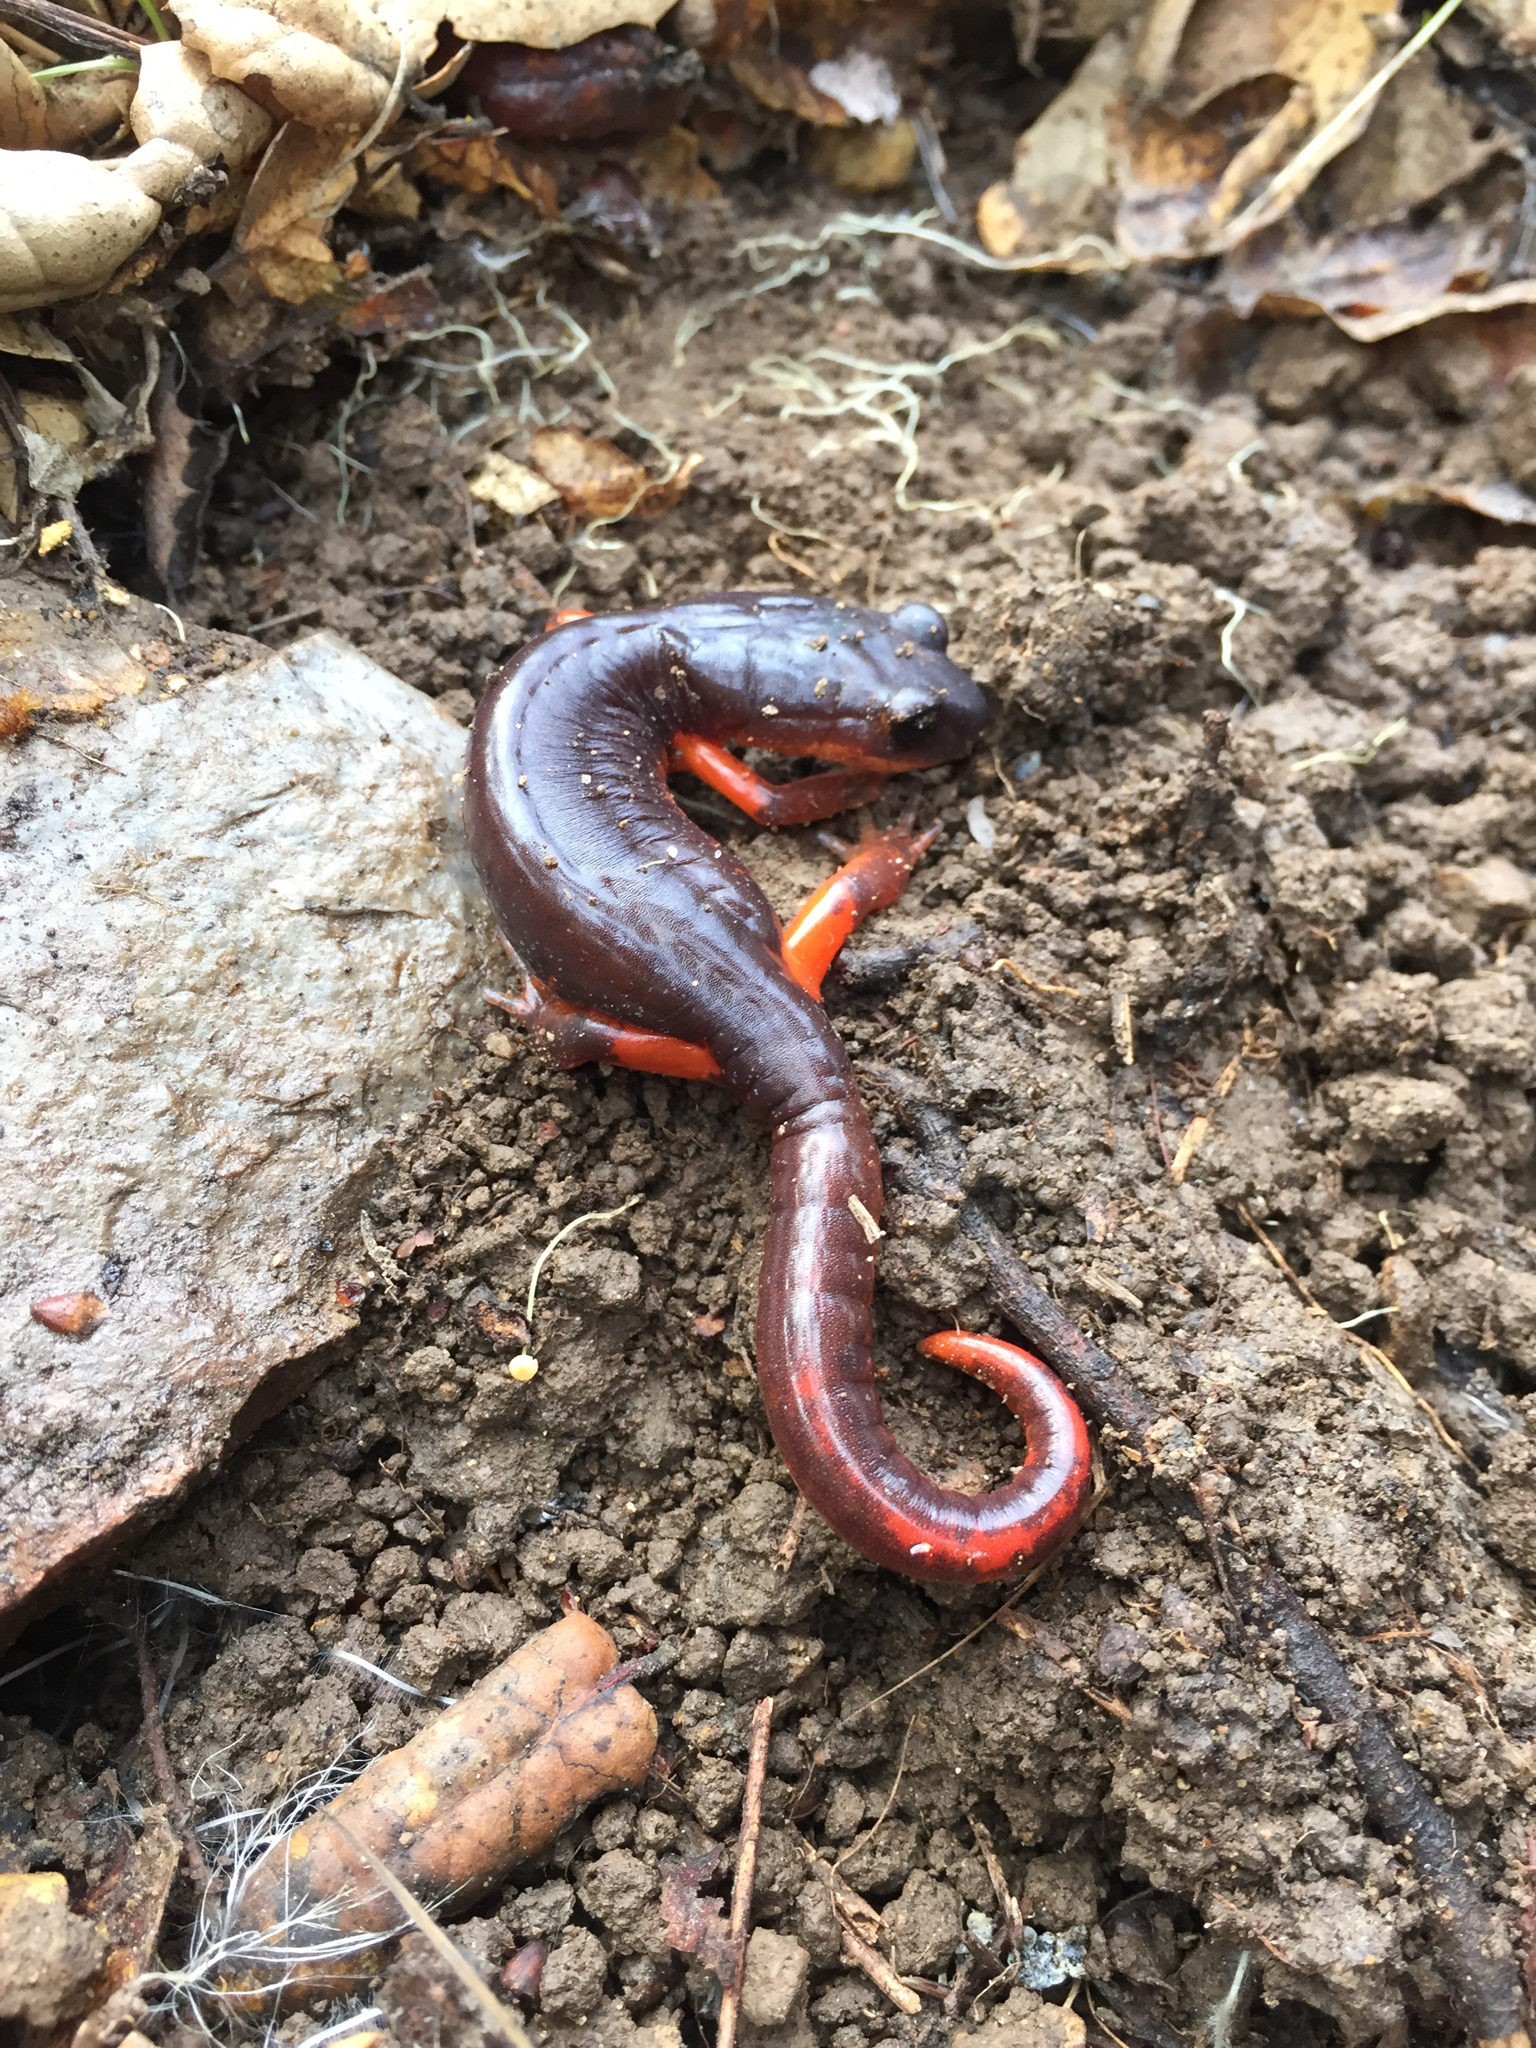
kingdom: Animalia
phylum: Chordata
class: Amphibia
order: Caudata
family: Plethodontidae
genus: Ensatina
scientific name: Ensatina eschscholtzii
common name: Ensatina
